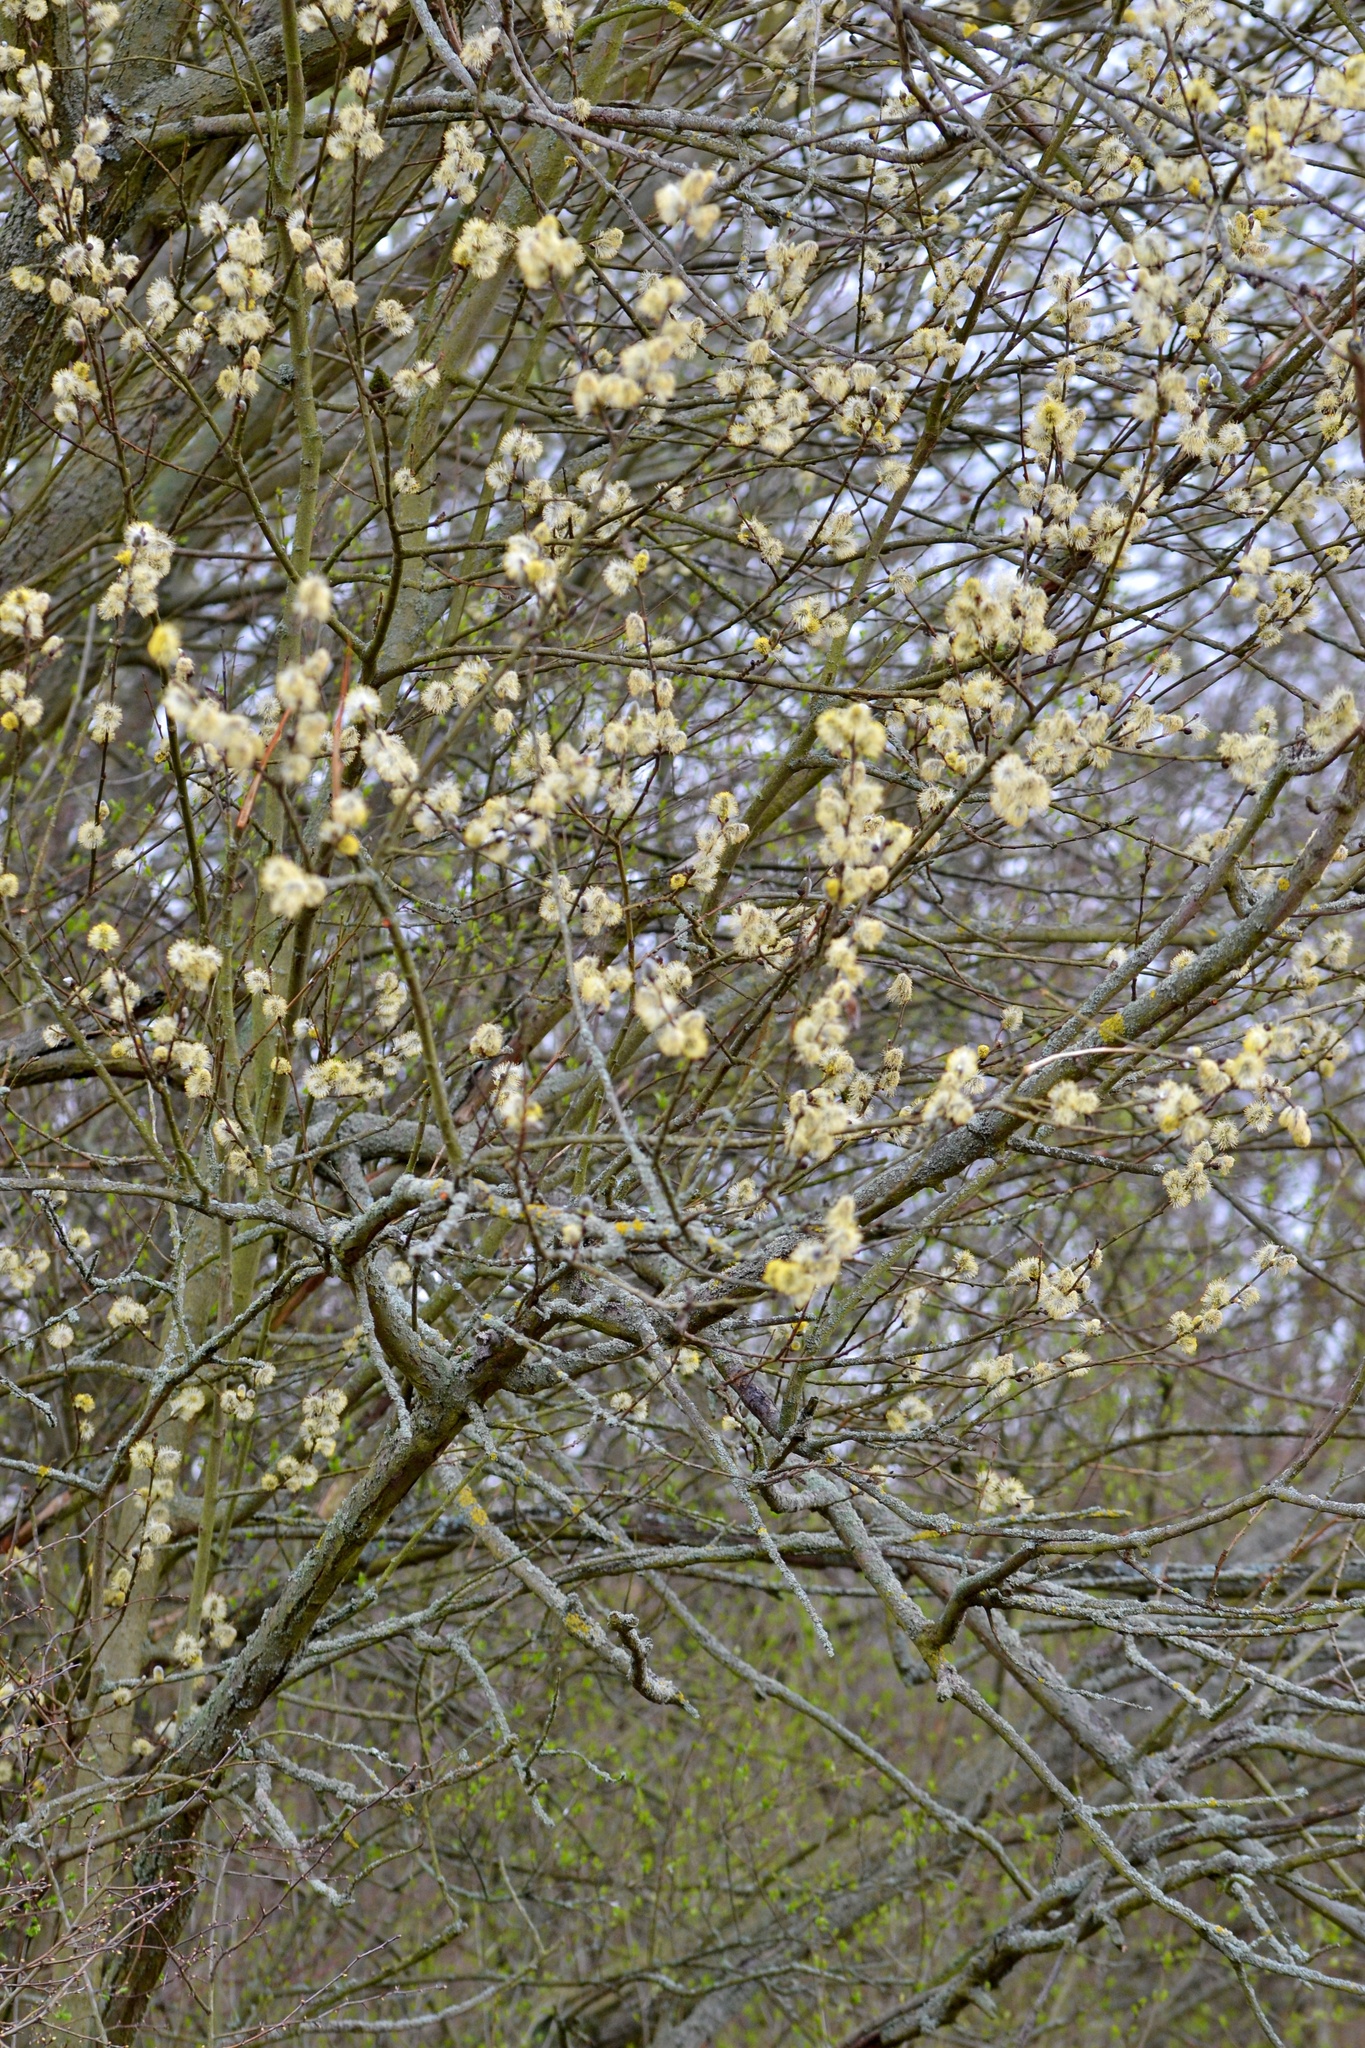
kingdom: Plantae
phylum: Tracheophyta
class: Magnoliopsida
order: Malpighiales
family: Salicaceae
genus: Salix
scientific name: Salix caprea
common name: Goat willow
